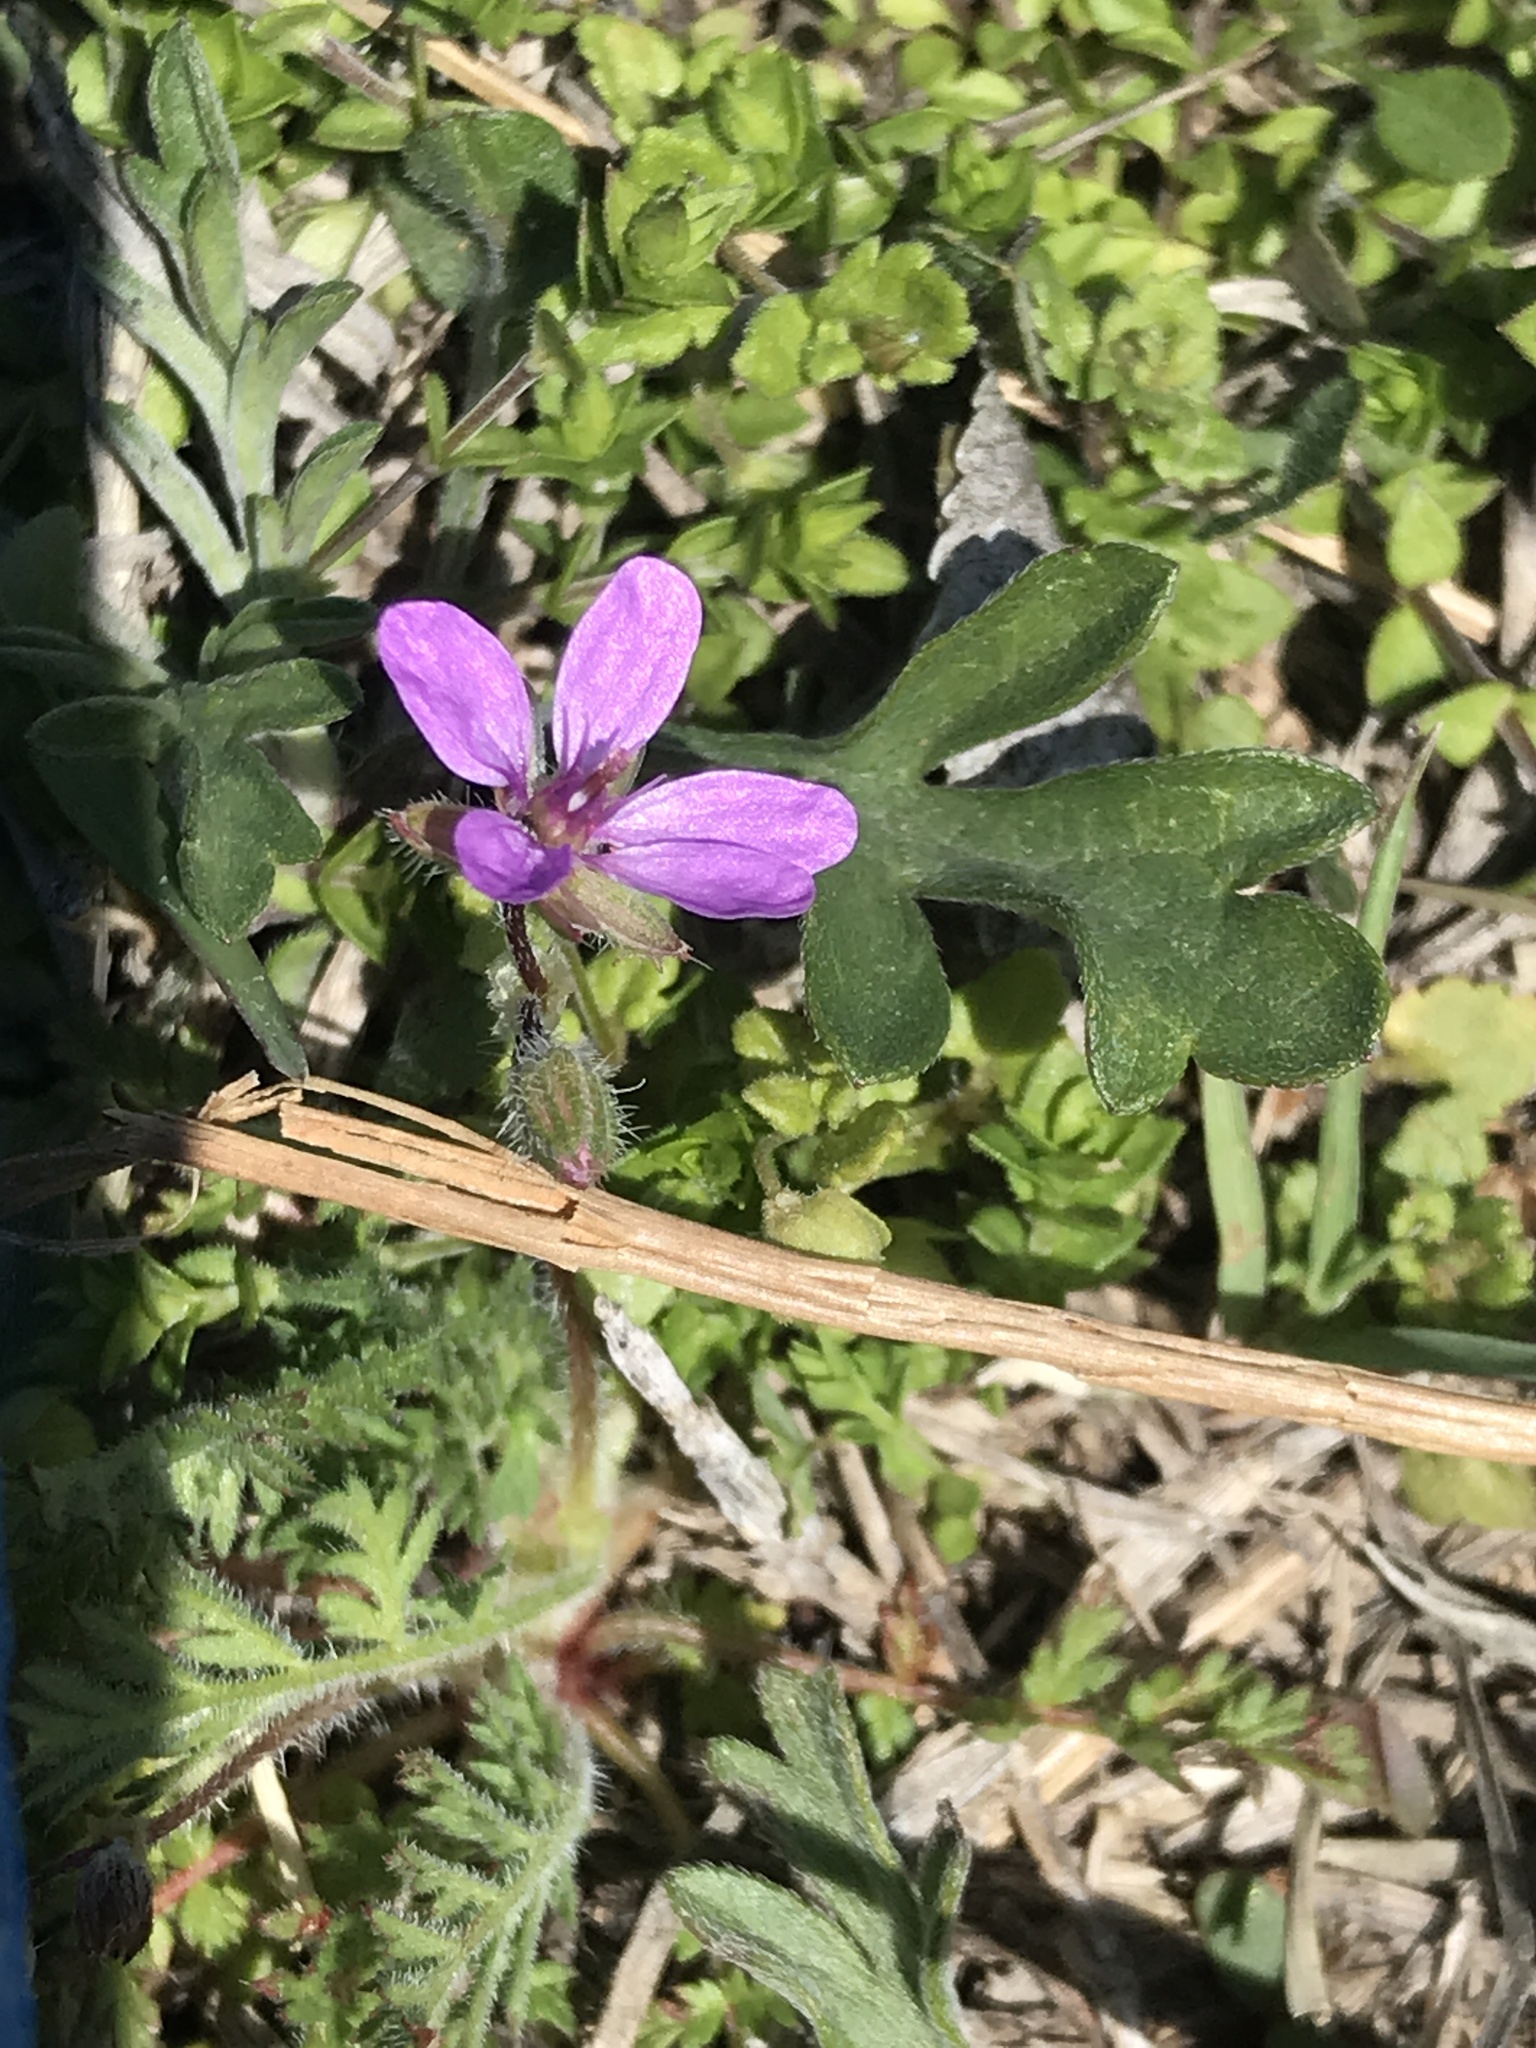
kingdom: Plantae
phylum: Tracheophyta
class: Magnoliopsida
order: Geraniales
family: Geraniaceae
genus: Erodium
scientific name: Erodium cicutarium
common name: Common stork's-bill
